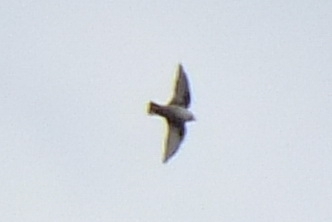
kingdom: Animalia
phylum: Chordata
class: Aves
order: Passeriformes
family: Hirundinidae
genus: Ptyonoprogne
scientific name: Ptyonoprogne rupestris
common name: Eurasian crag martin
